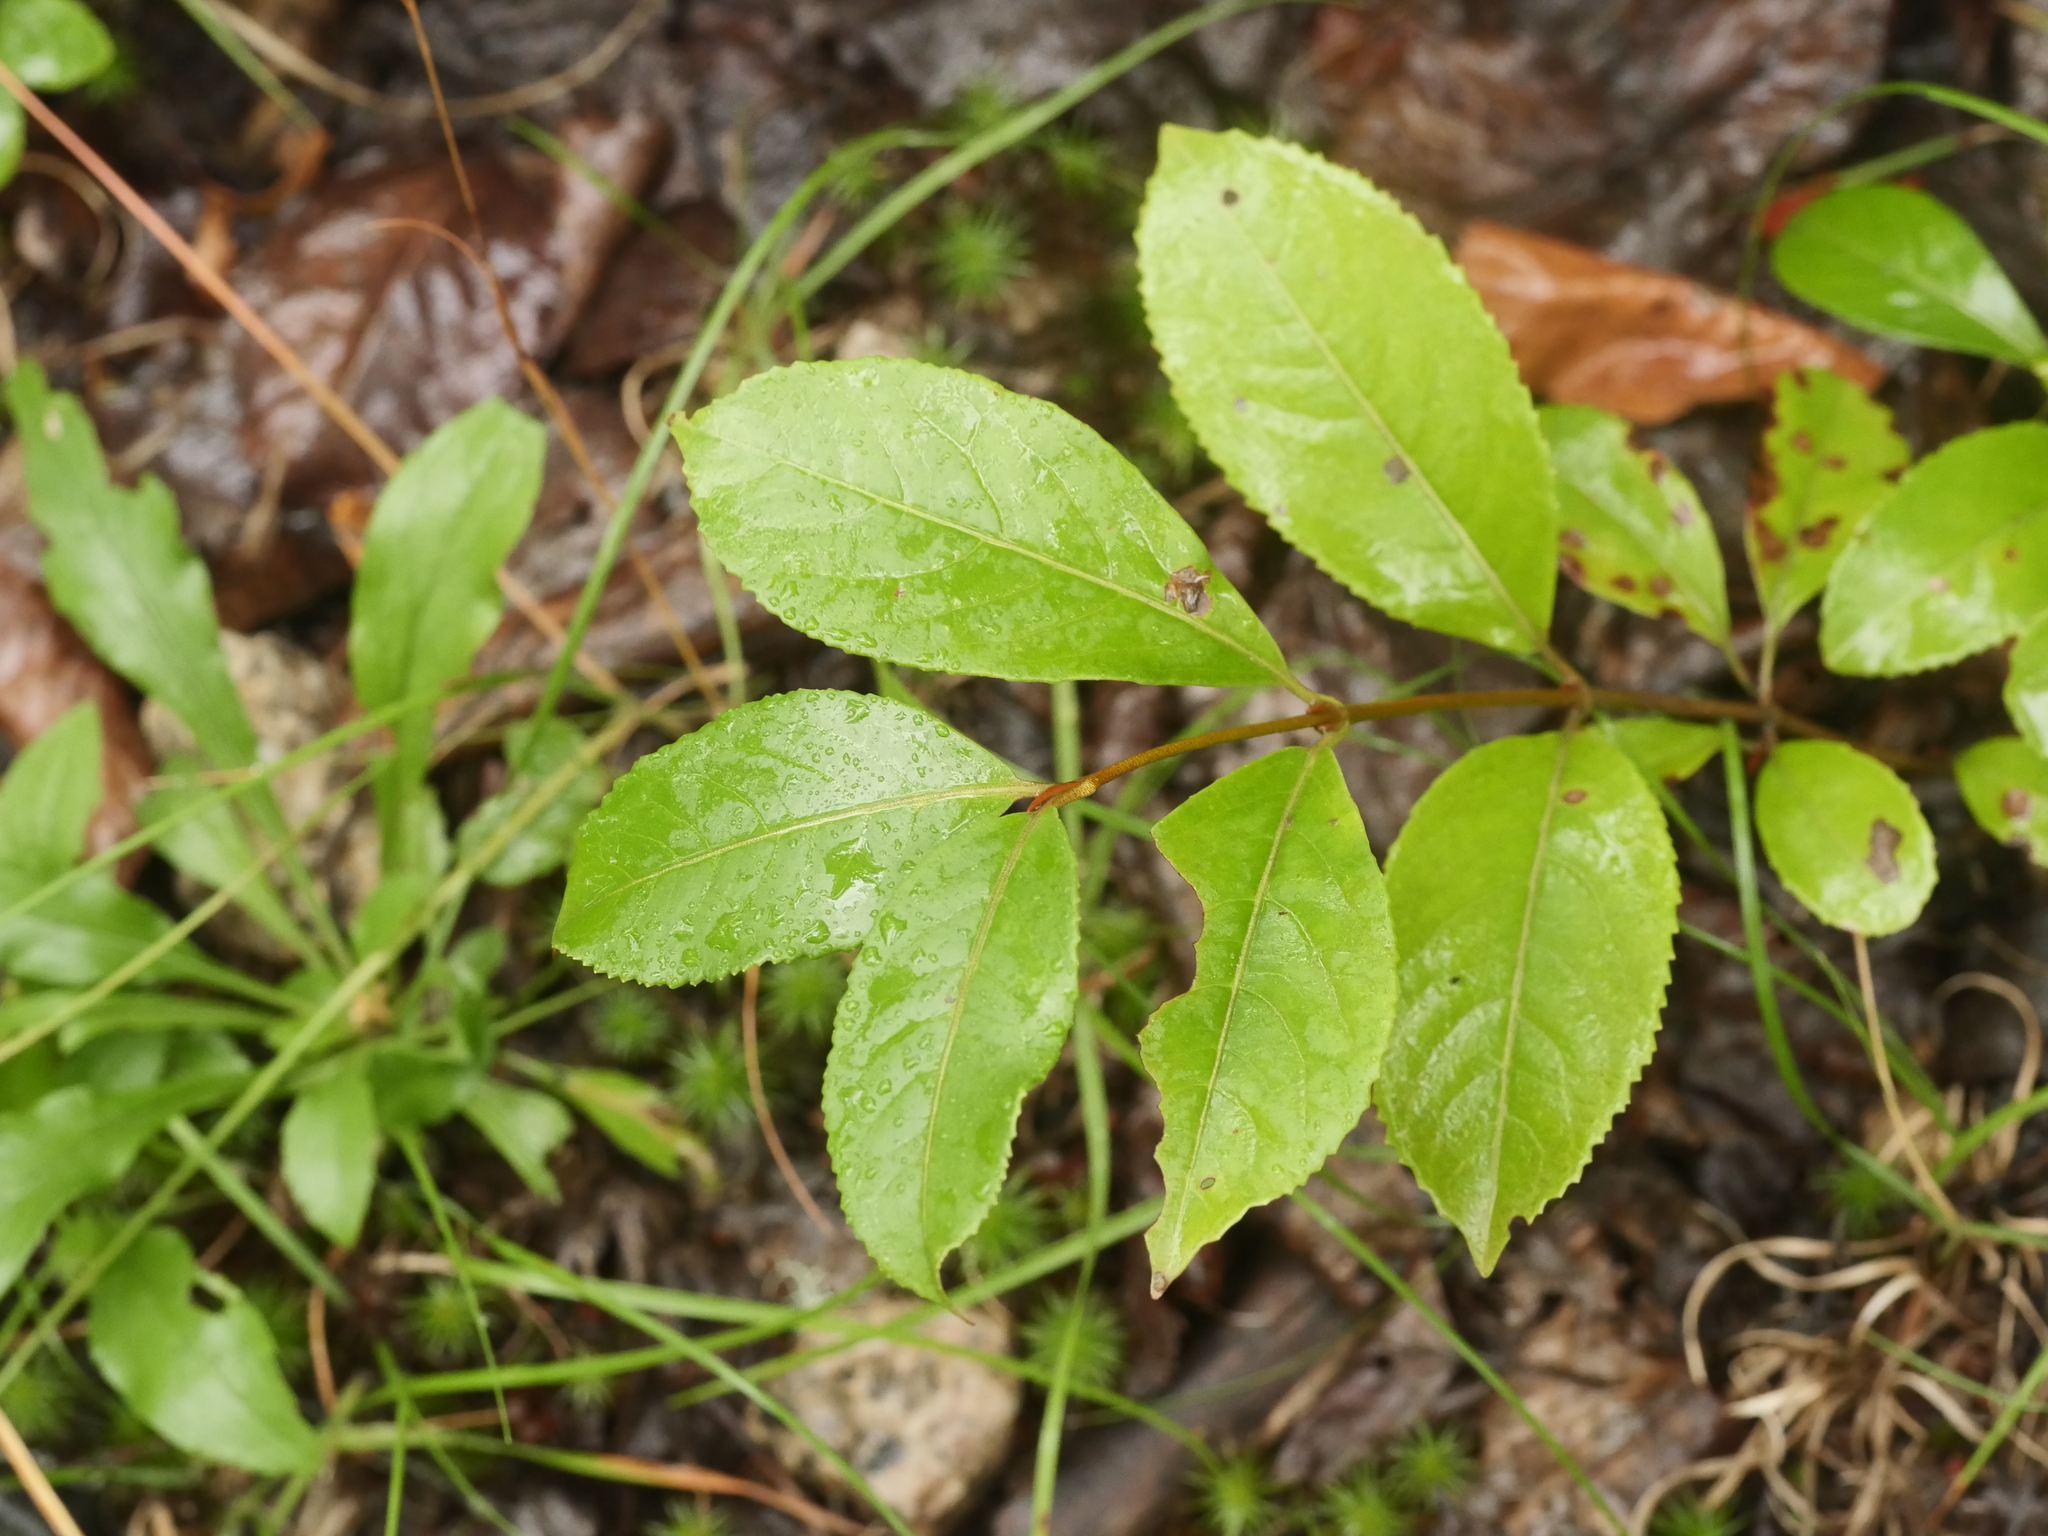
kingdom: Plantae
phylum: Tracheophyta
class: Magnoliopsida
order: Dipsacales
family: Viburnaceae
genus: Viburnum
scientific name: Viburnum cassinoides
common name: Swamp haw
